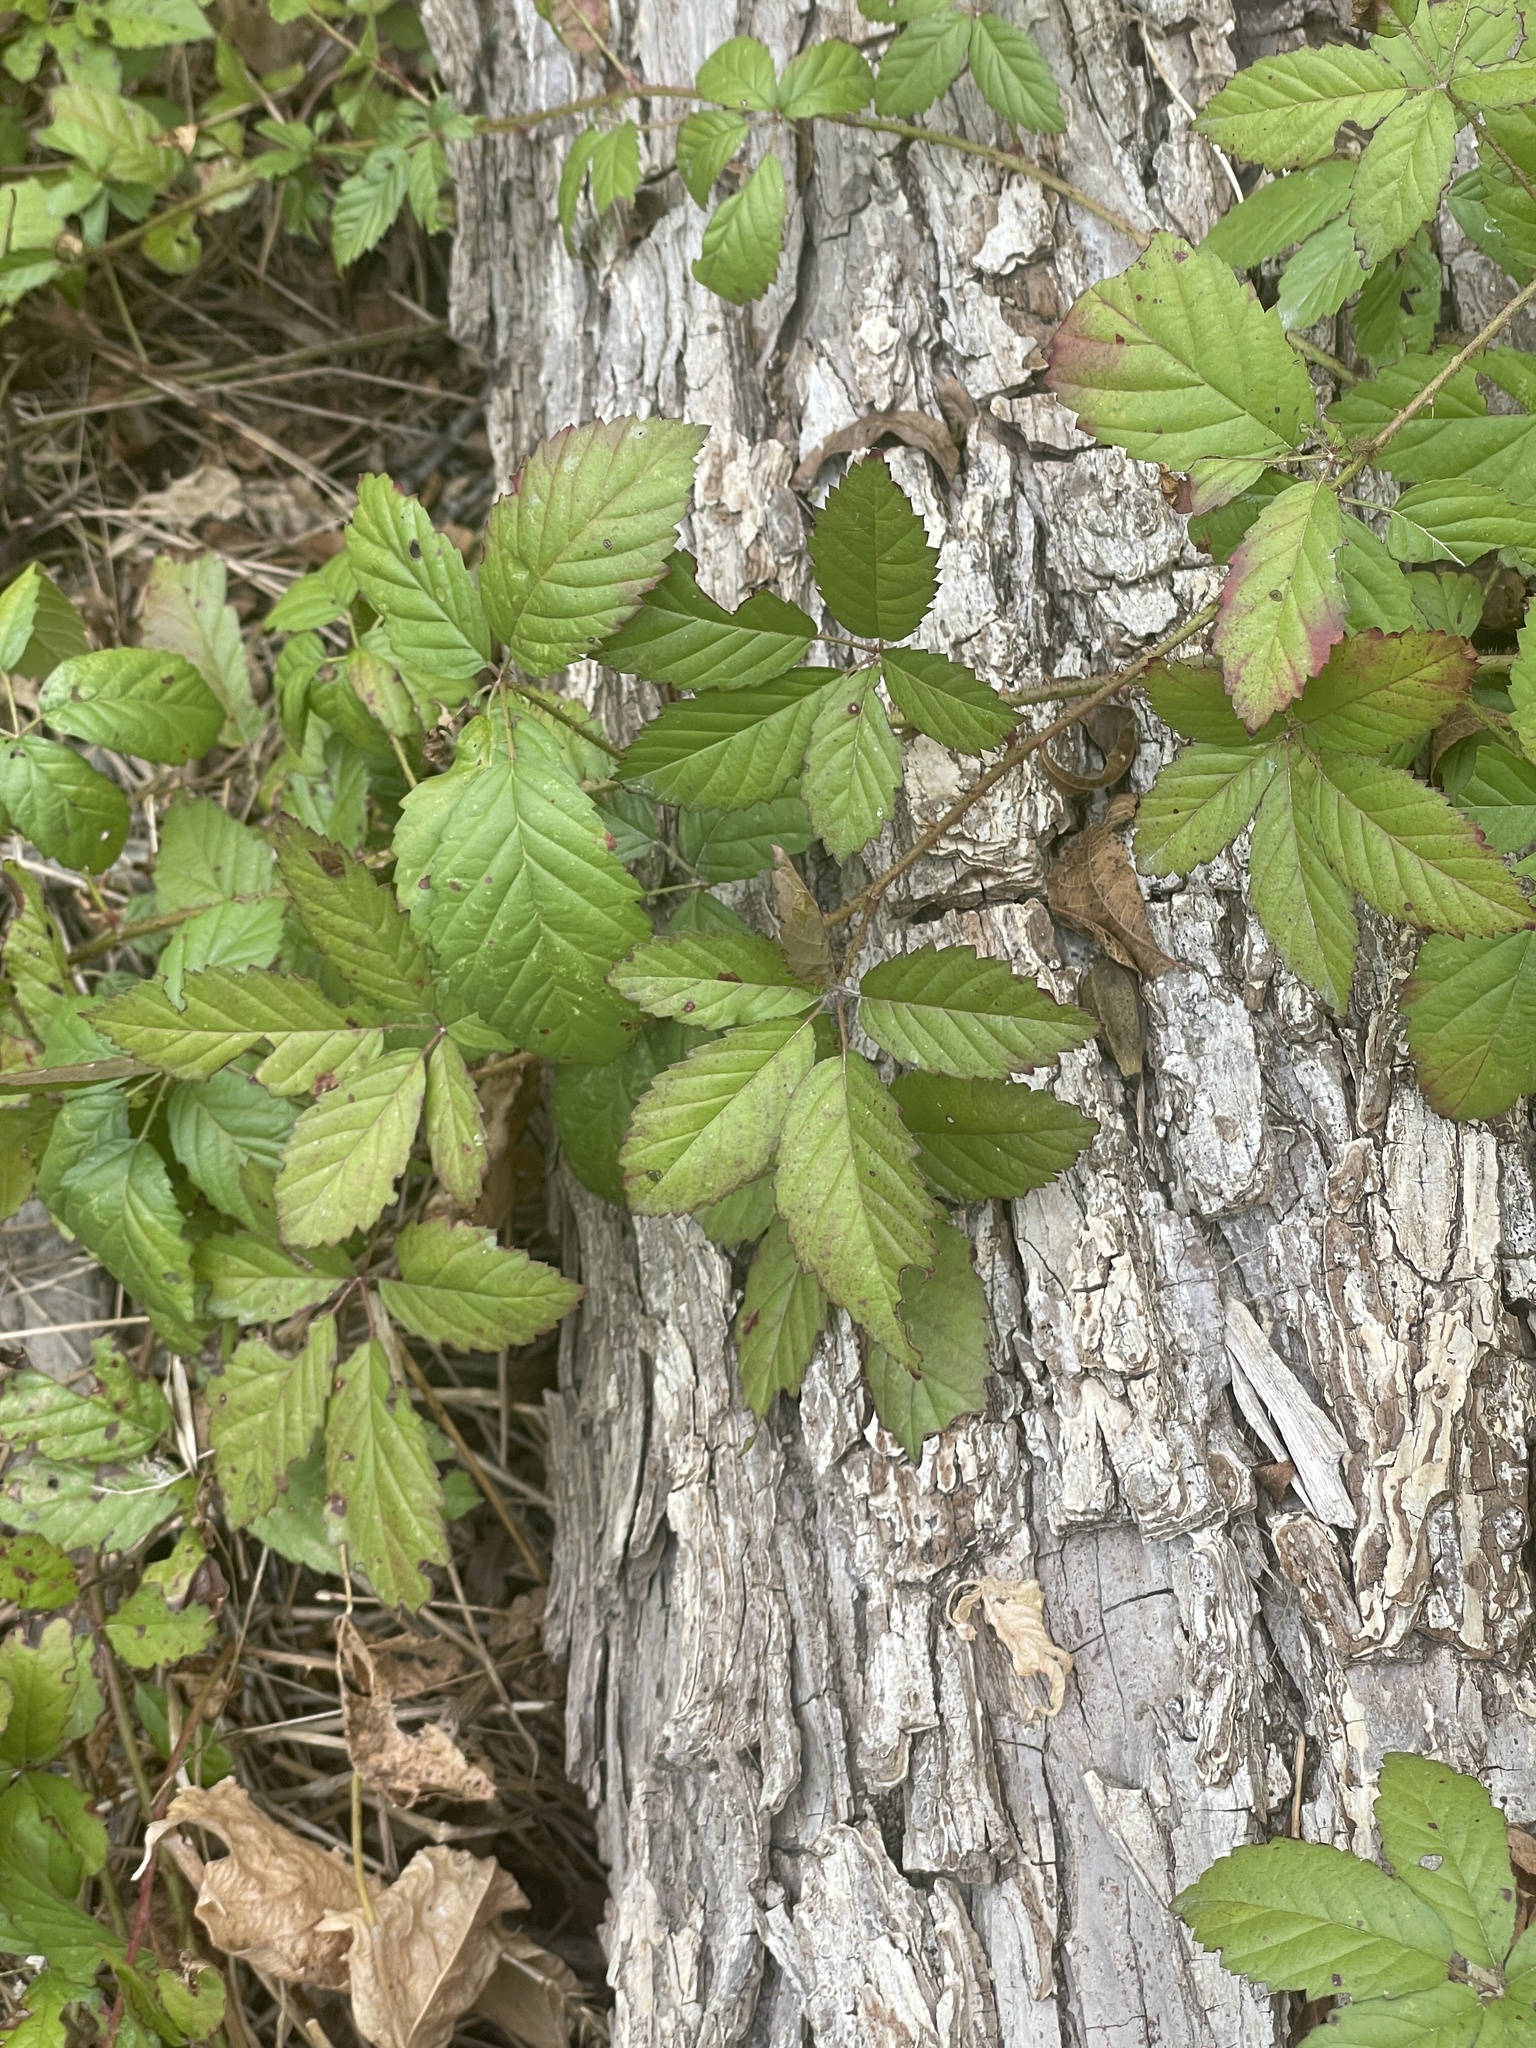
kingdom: Plantae
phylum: Tracheophyta
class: Magnoliopsida
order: Rosales
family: Rosaceae
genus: Rubus
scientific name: Rubus trivialis
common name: Southern dewberry
